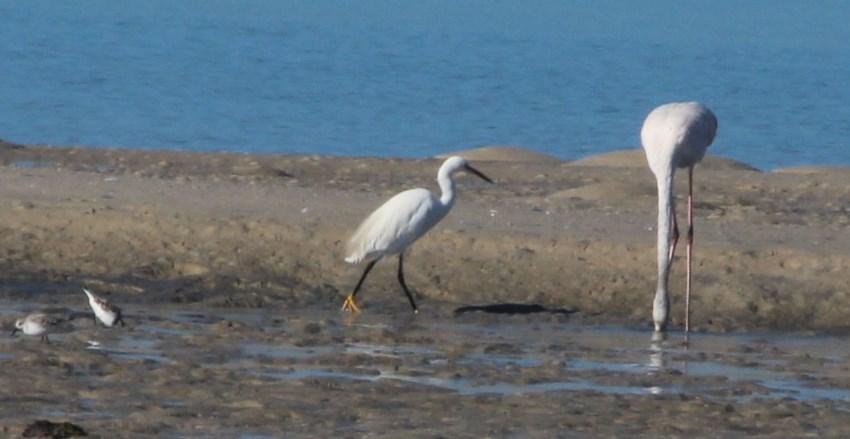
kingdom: Animalia
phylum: Chordata
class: Aves
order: Phoenicopteriformes
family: Phoenicopteridae
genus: Phoenicopterus
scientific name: Phoenicopterus roseus
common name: Greater flamingo
